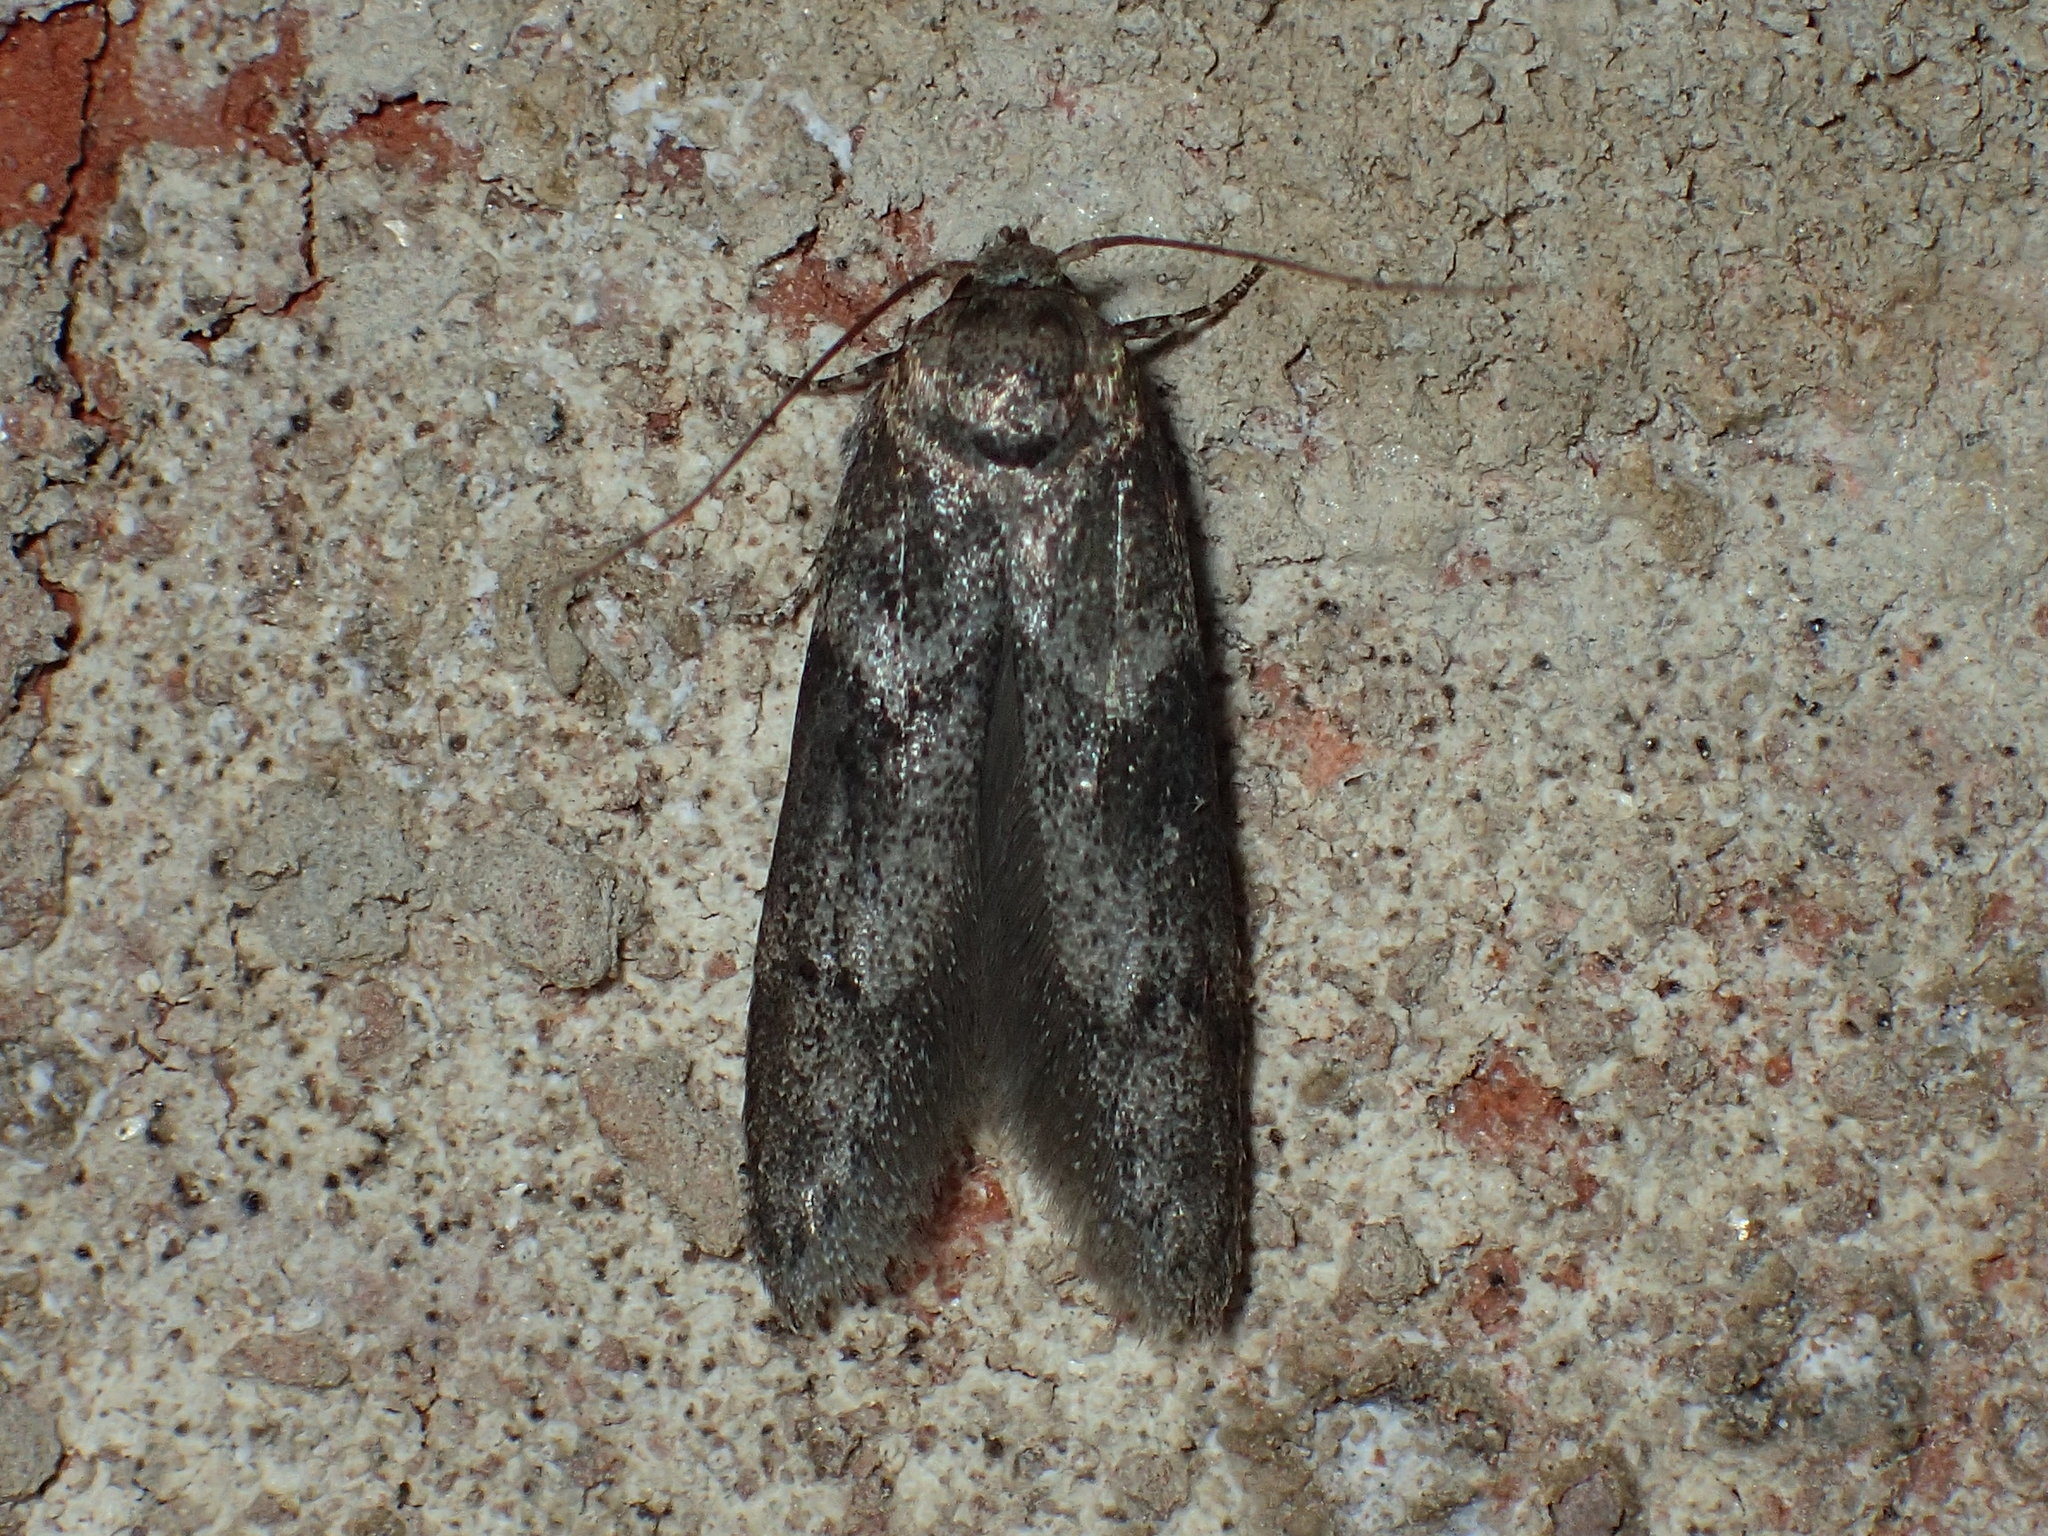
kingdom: Animalia
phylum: Arthropoda
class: Insecta
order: Lepidoptera
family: Blastobasidae
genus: Blastobasis
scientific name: Blastobasis glandulella
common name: Acorn moth
